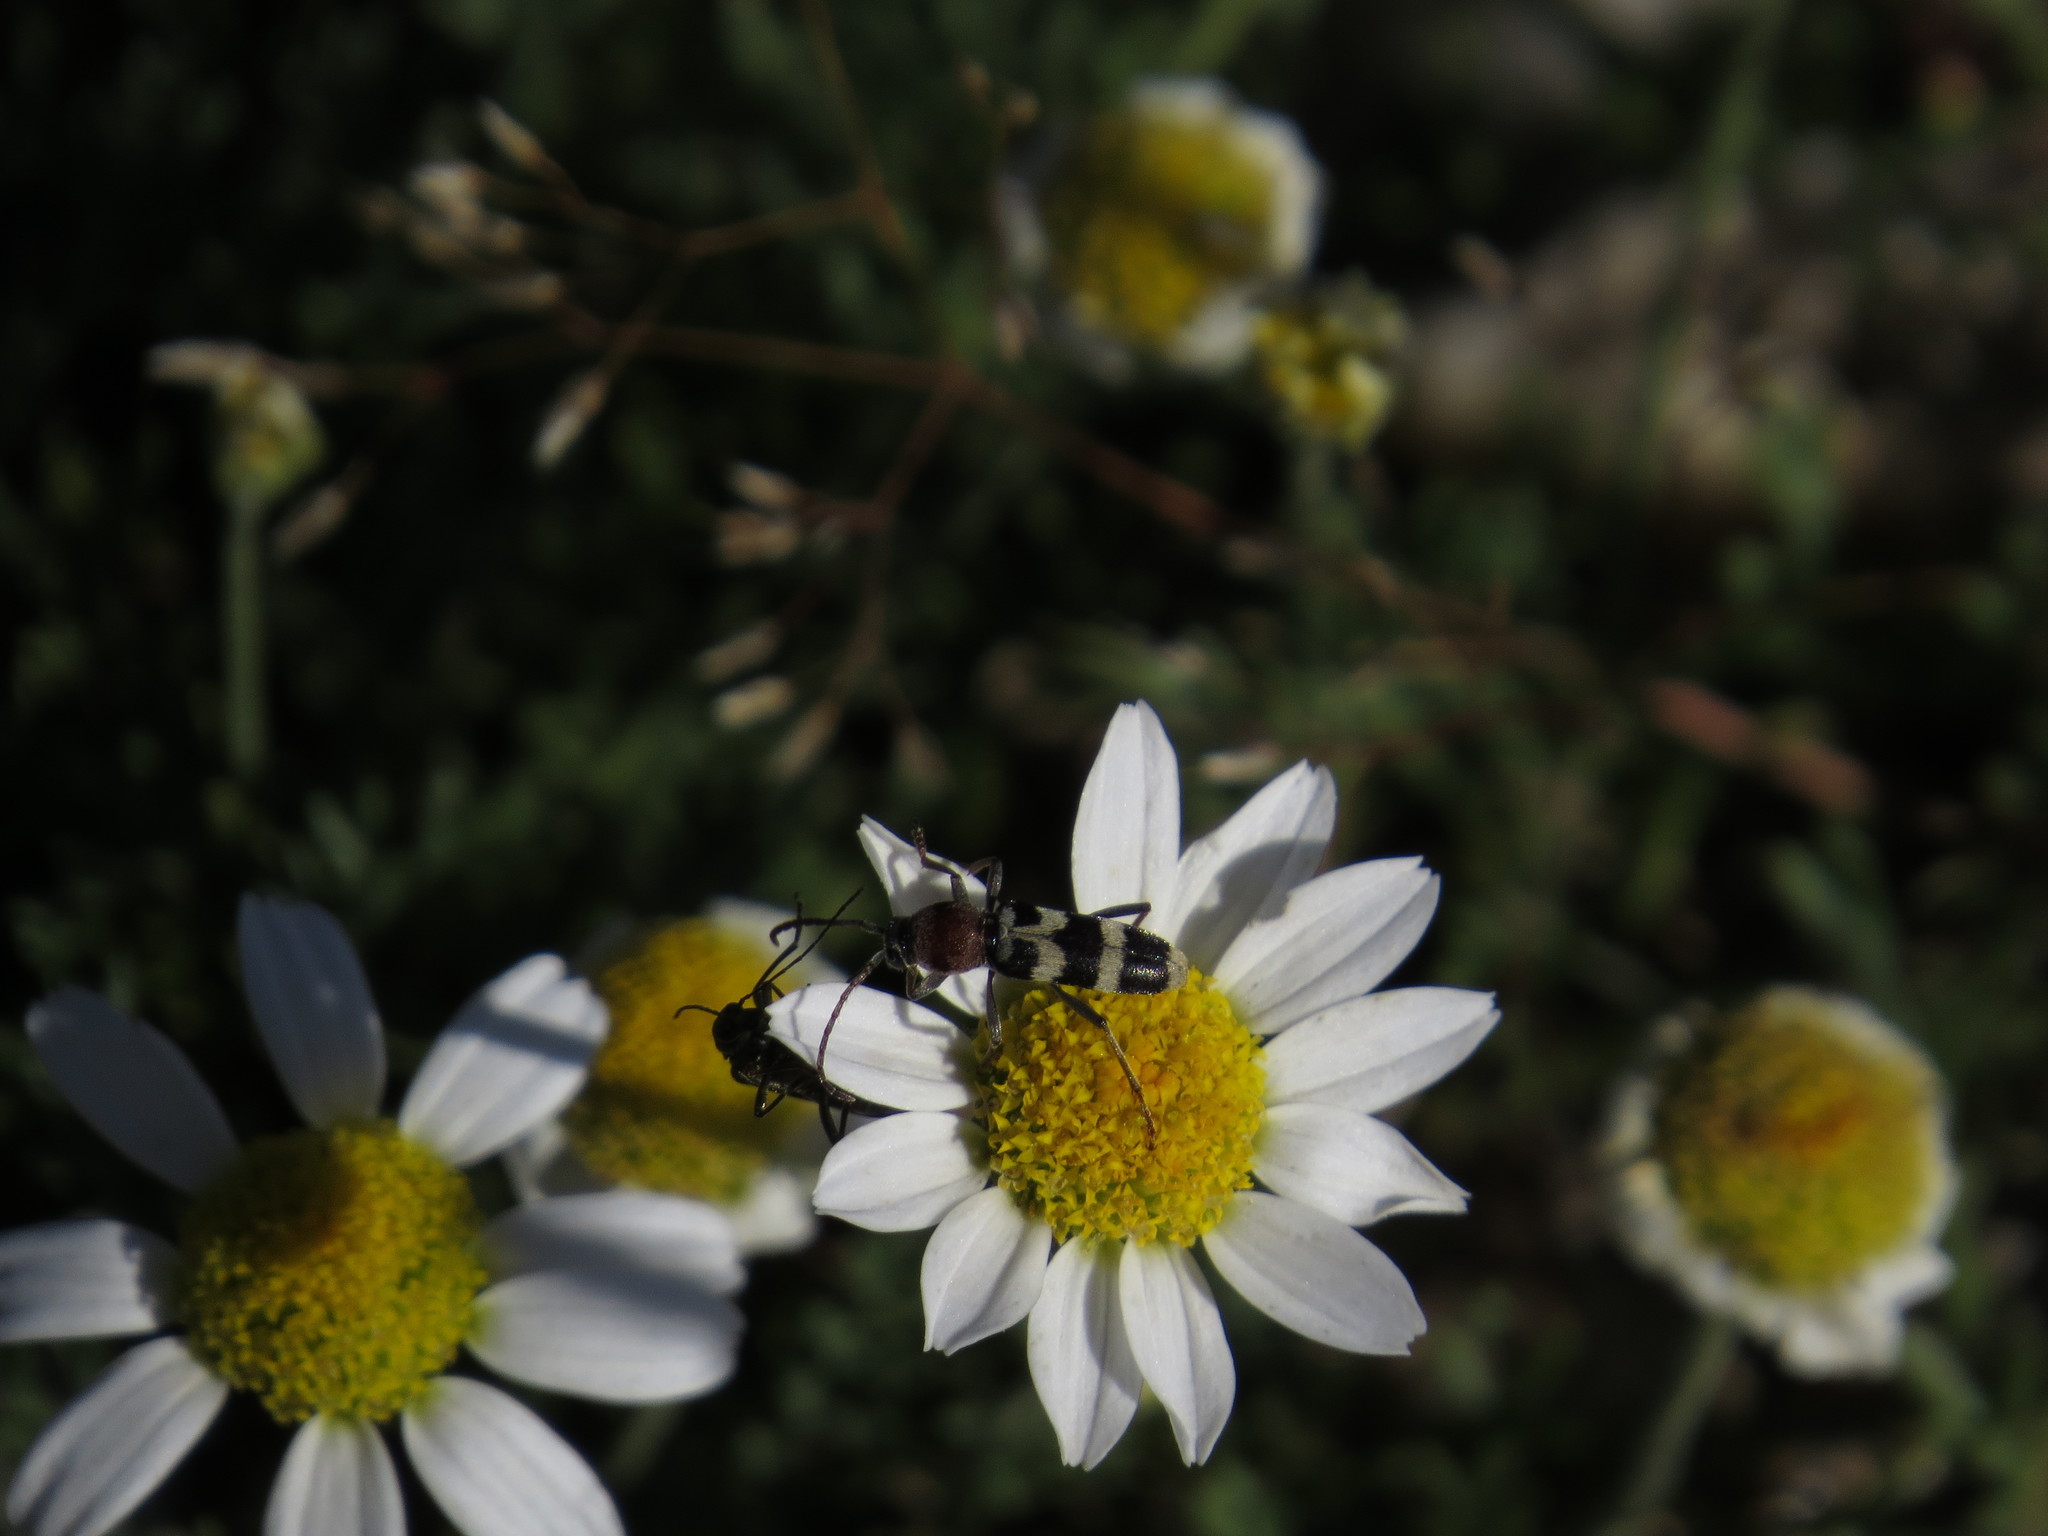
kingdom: Animalia
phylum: Arthropoda
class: Insecta
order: Coleoptera
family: Cerambycidae
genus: Chlorophorus
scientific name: Chlorophorus trifasciatus
